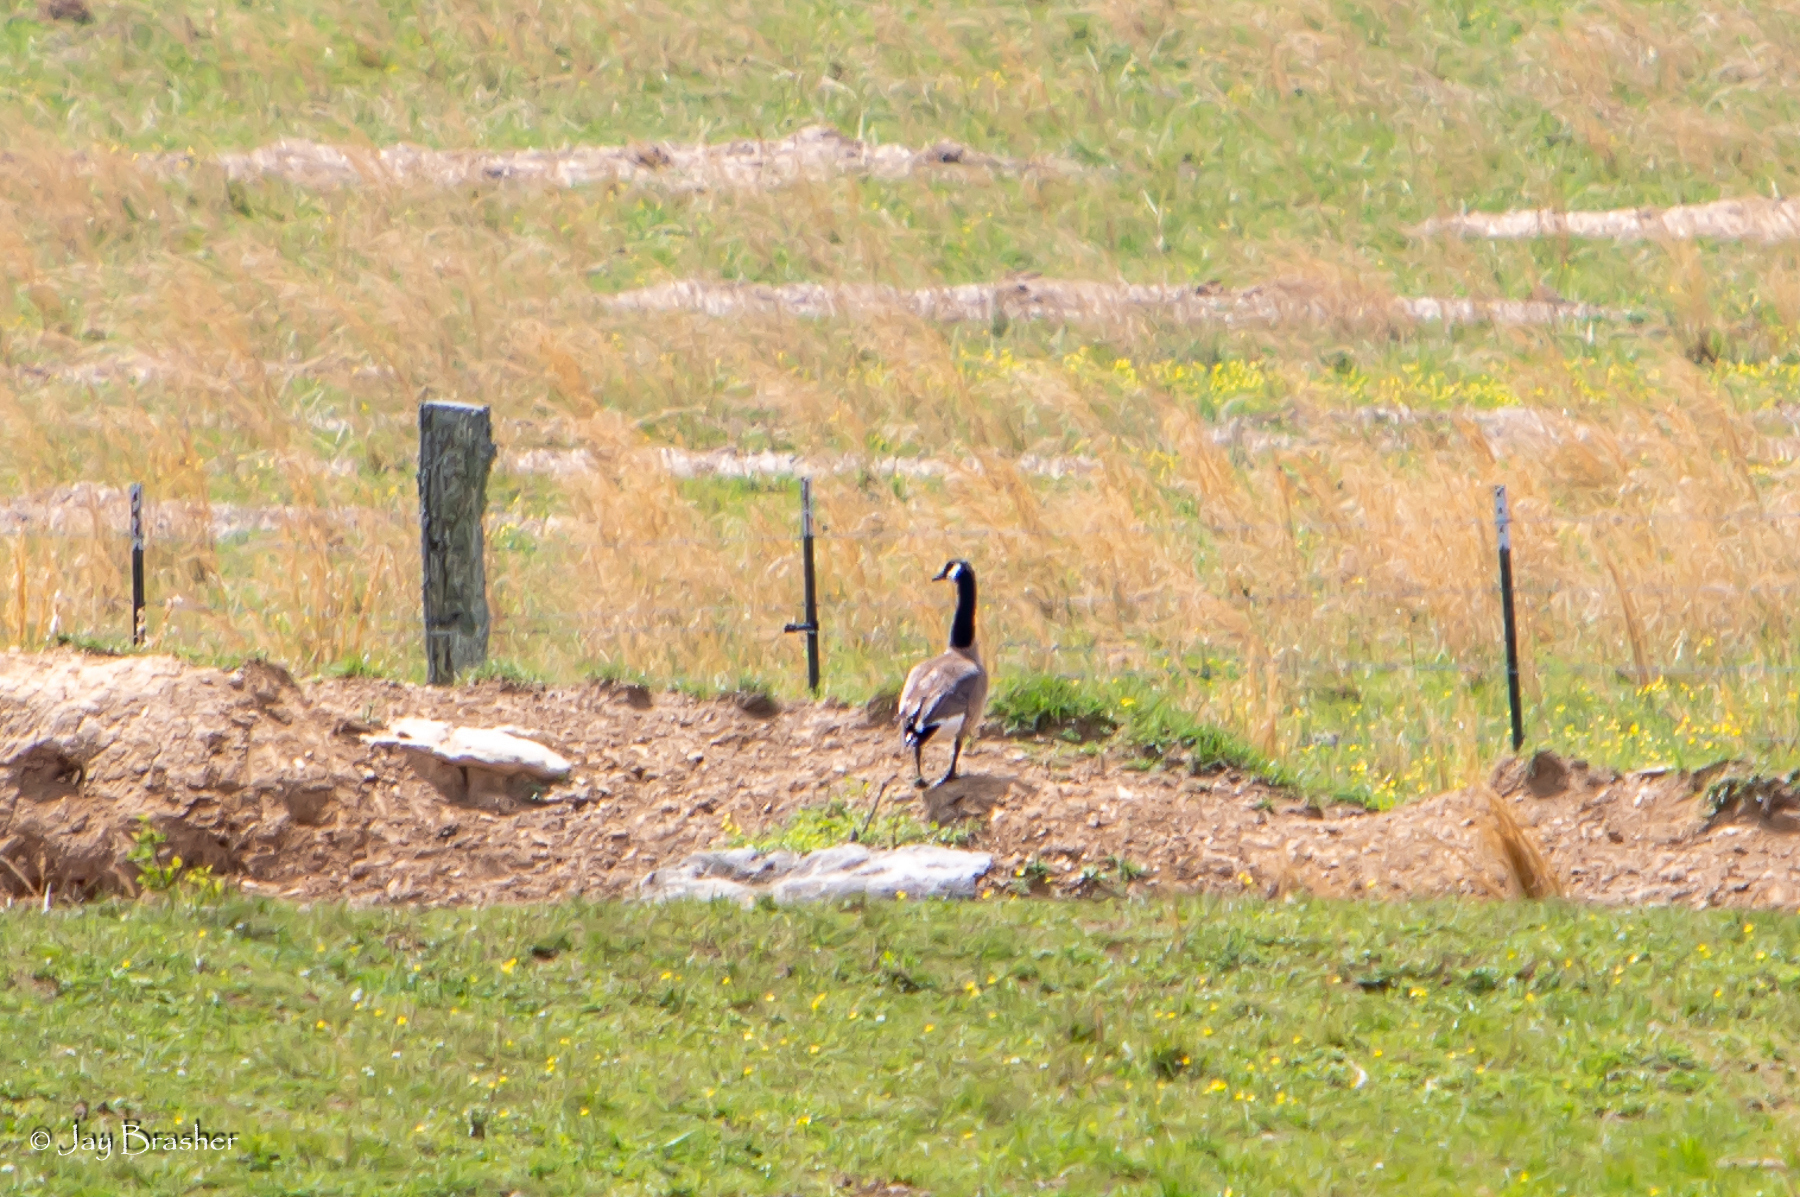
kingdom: Animalia
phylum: Chordata
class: Aves
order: Anseriformes
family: Anatidae
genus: Branta
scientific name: Branta canadensis
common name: Canada goose
